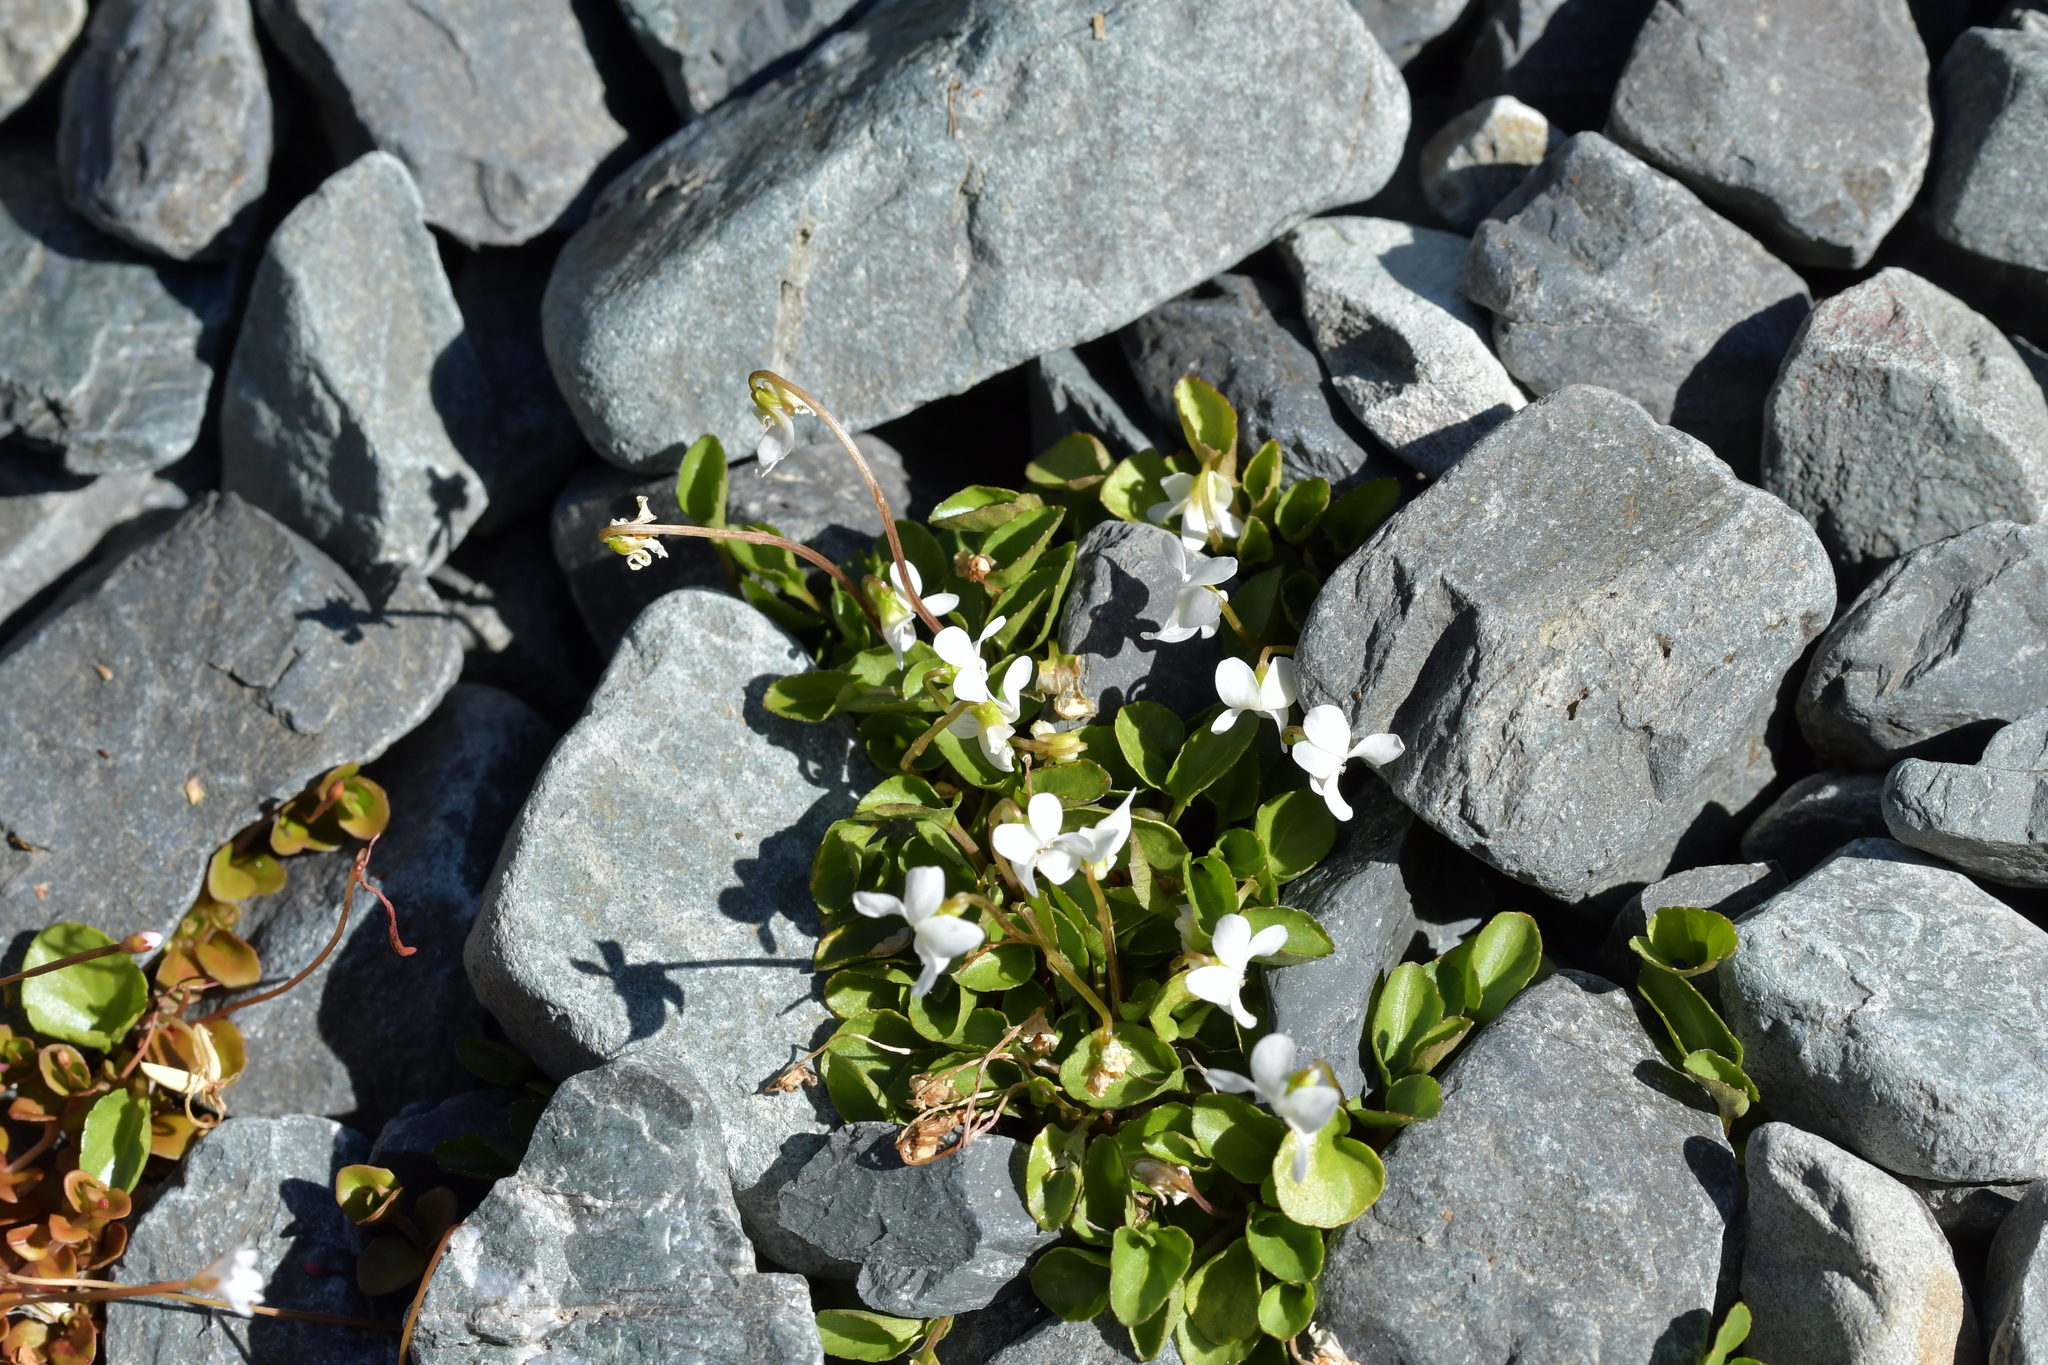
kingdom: Plantae
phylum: Tracheophyta
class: Magnoliopsida
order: Malpighiales
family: Violaceae
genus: Viola
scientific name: Viola cunninghamii
